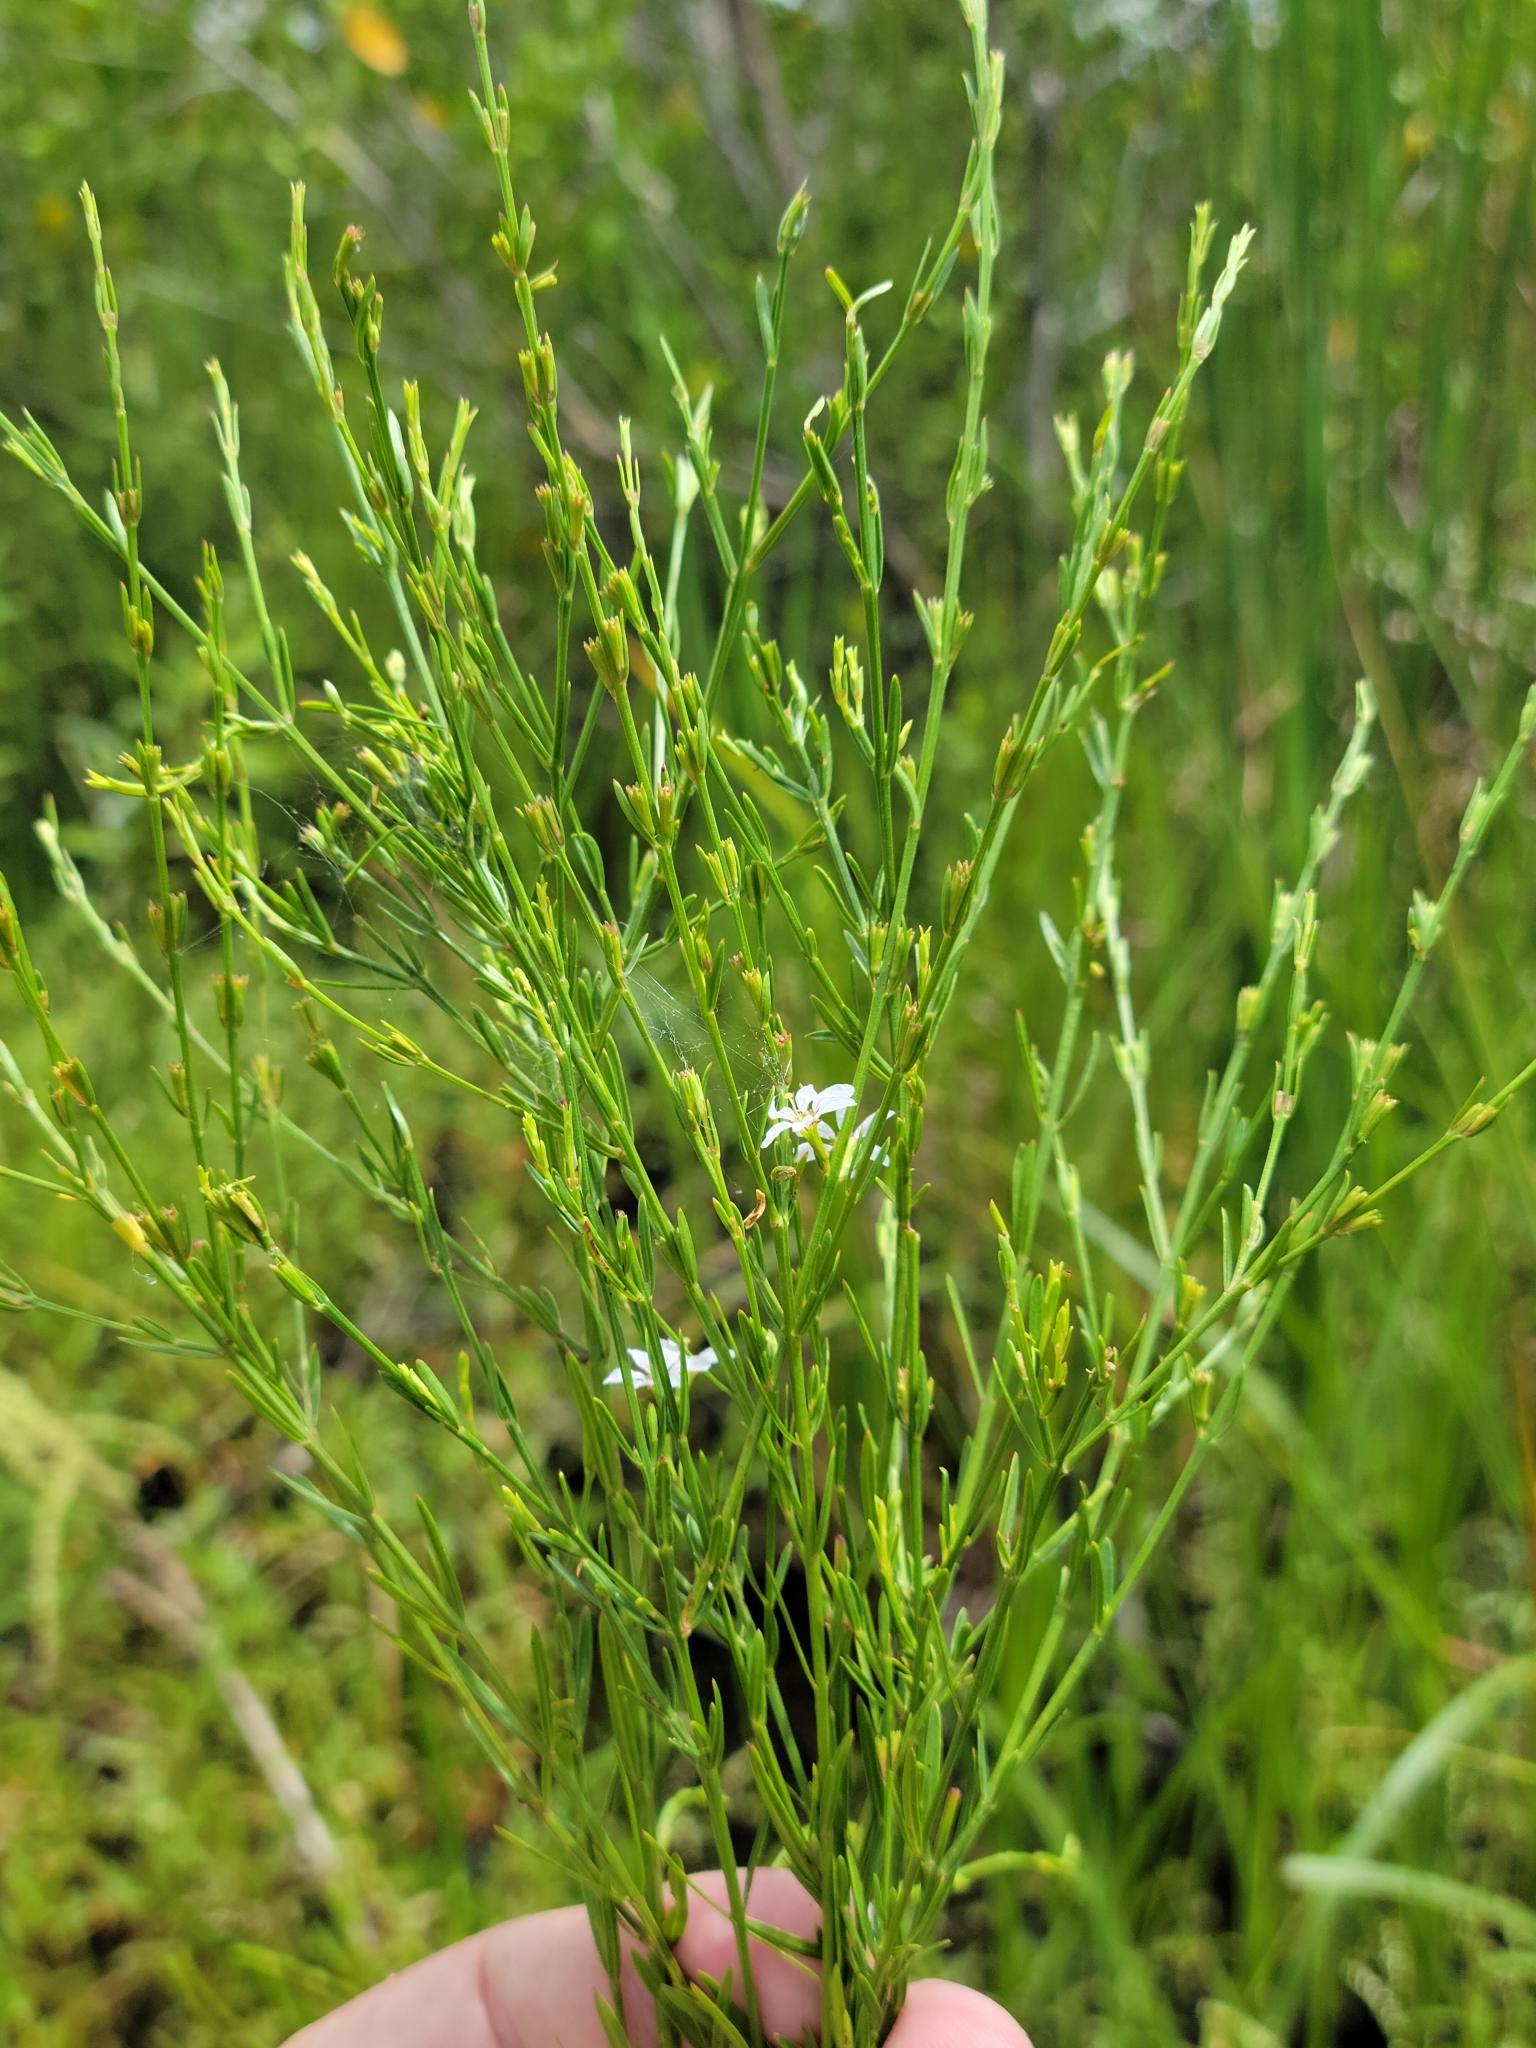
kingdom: Plantae
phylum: Tracheophyta
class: Magnoliopsida
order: Myrtales
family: Lythraceae
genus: Lythrum
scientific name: Lythrum lineare
